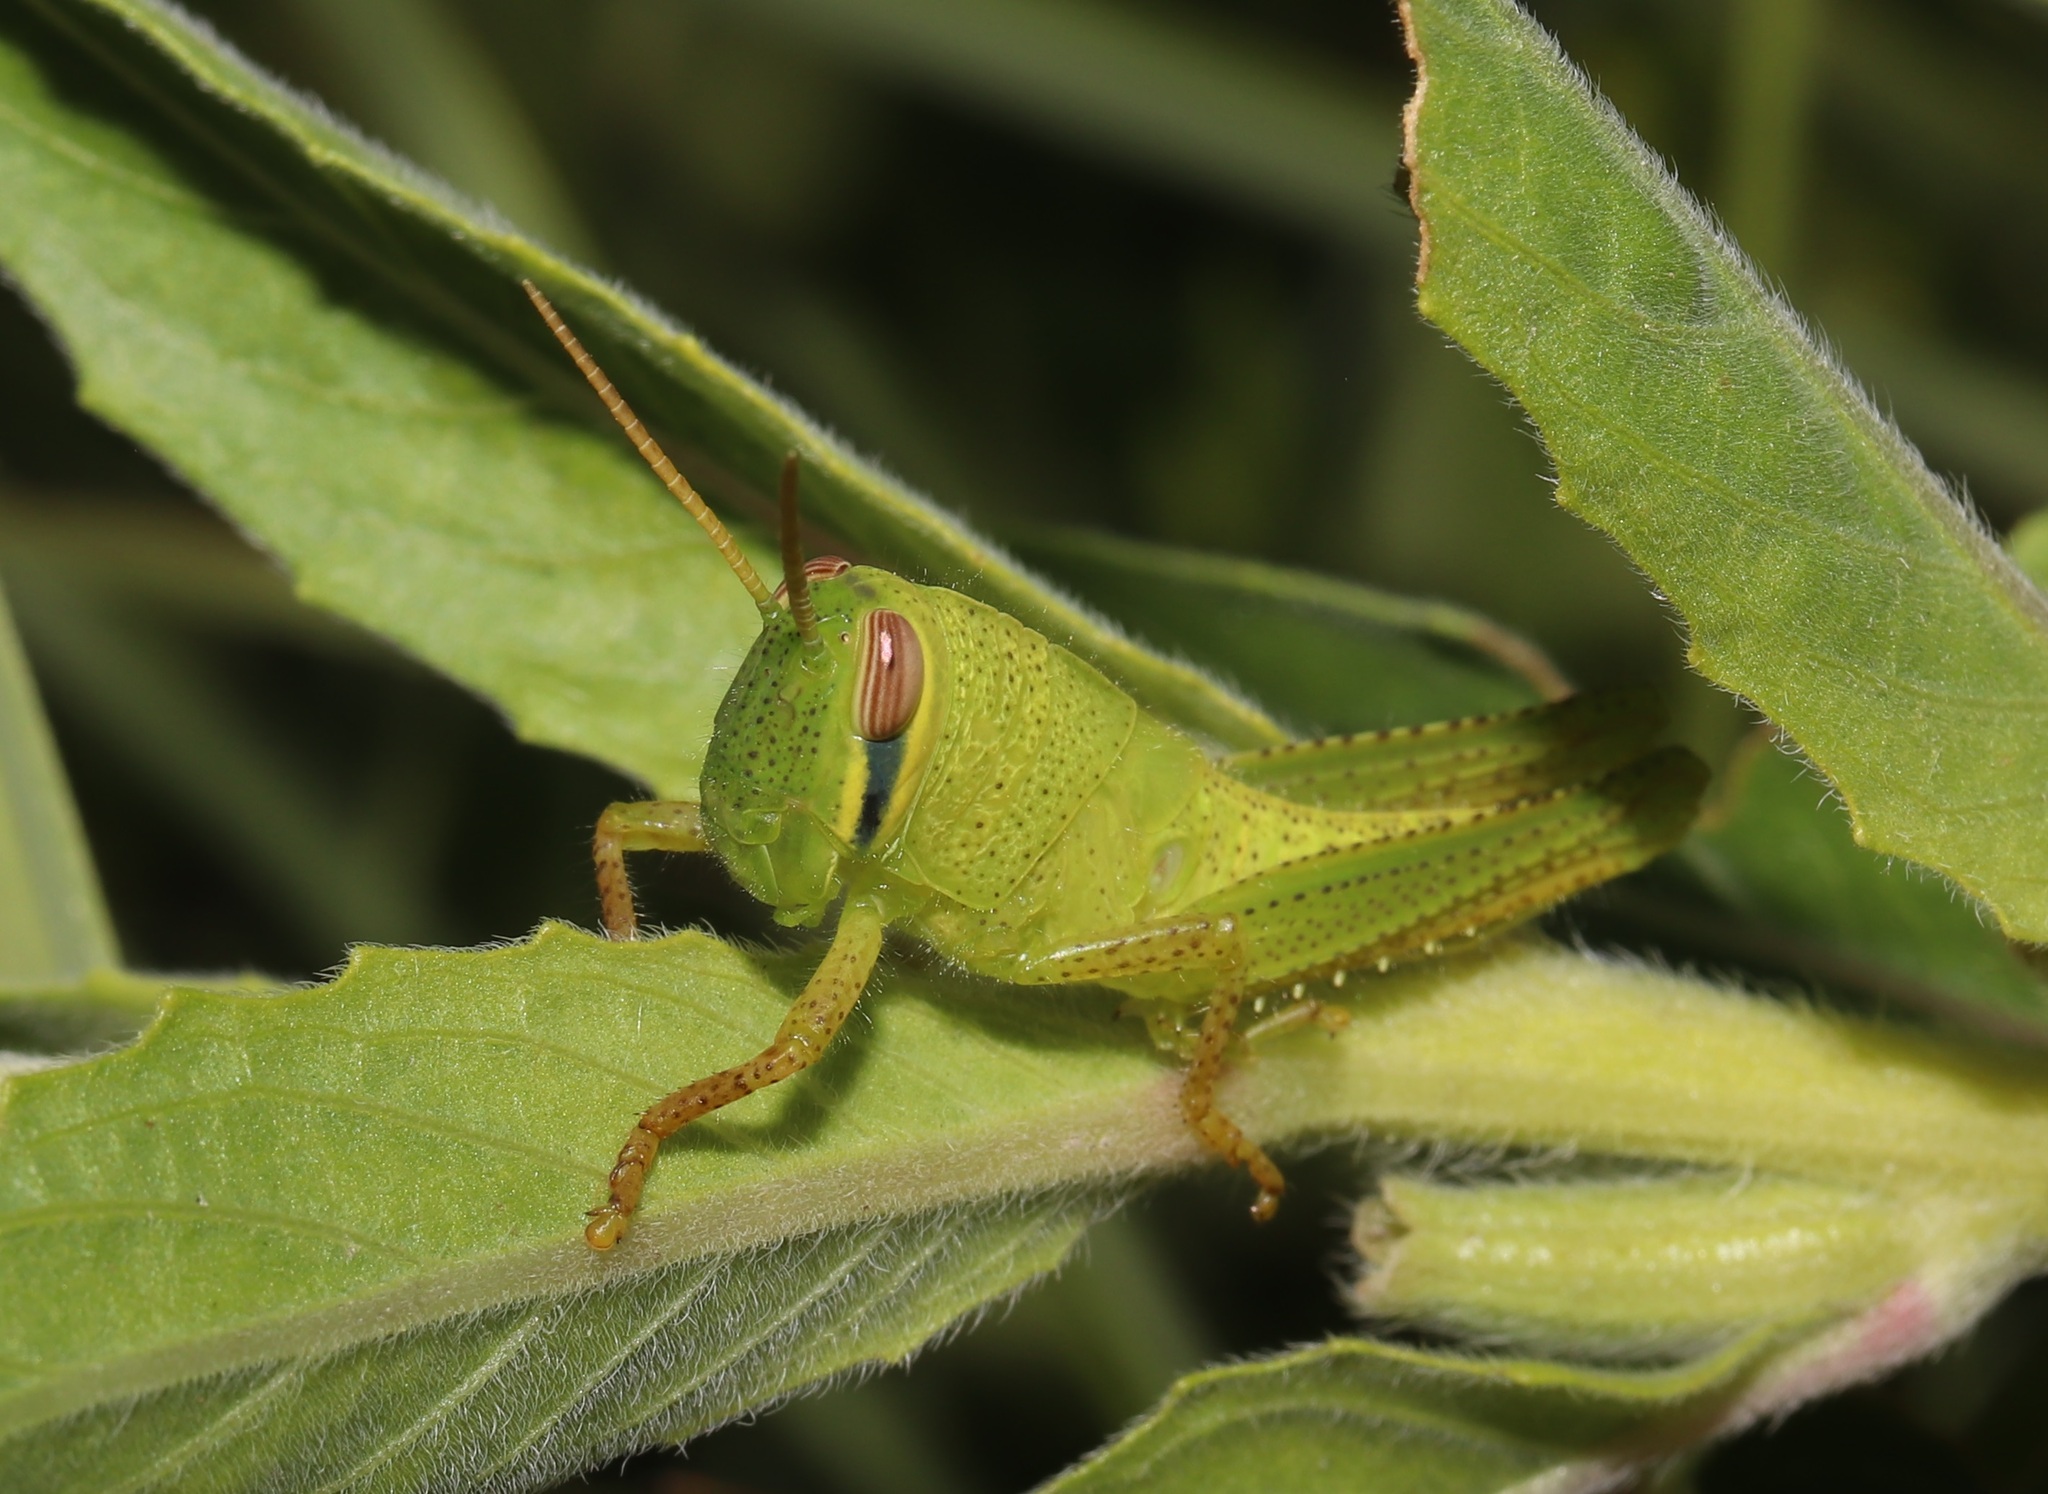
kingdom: Animalia
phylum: Arthropoda
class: Insecta
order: Orthoptera
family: Acrididae
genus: Patanga
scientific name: Patanga japonica
